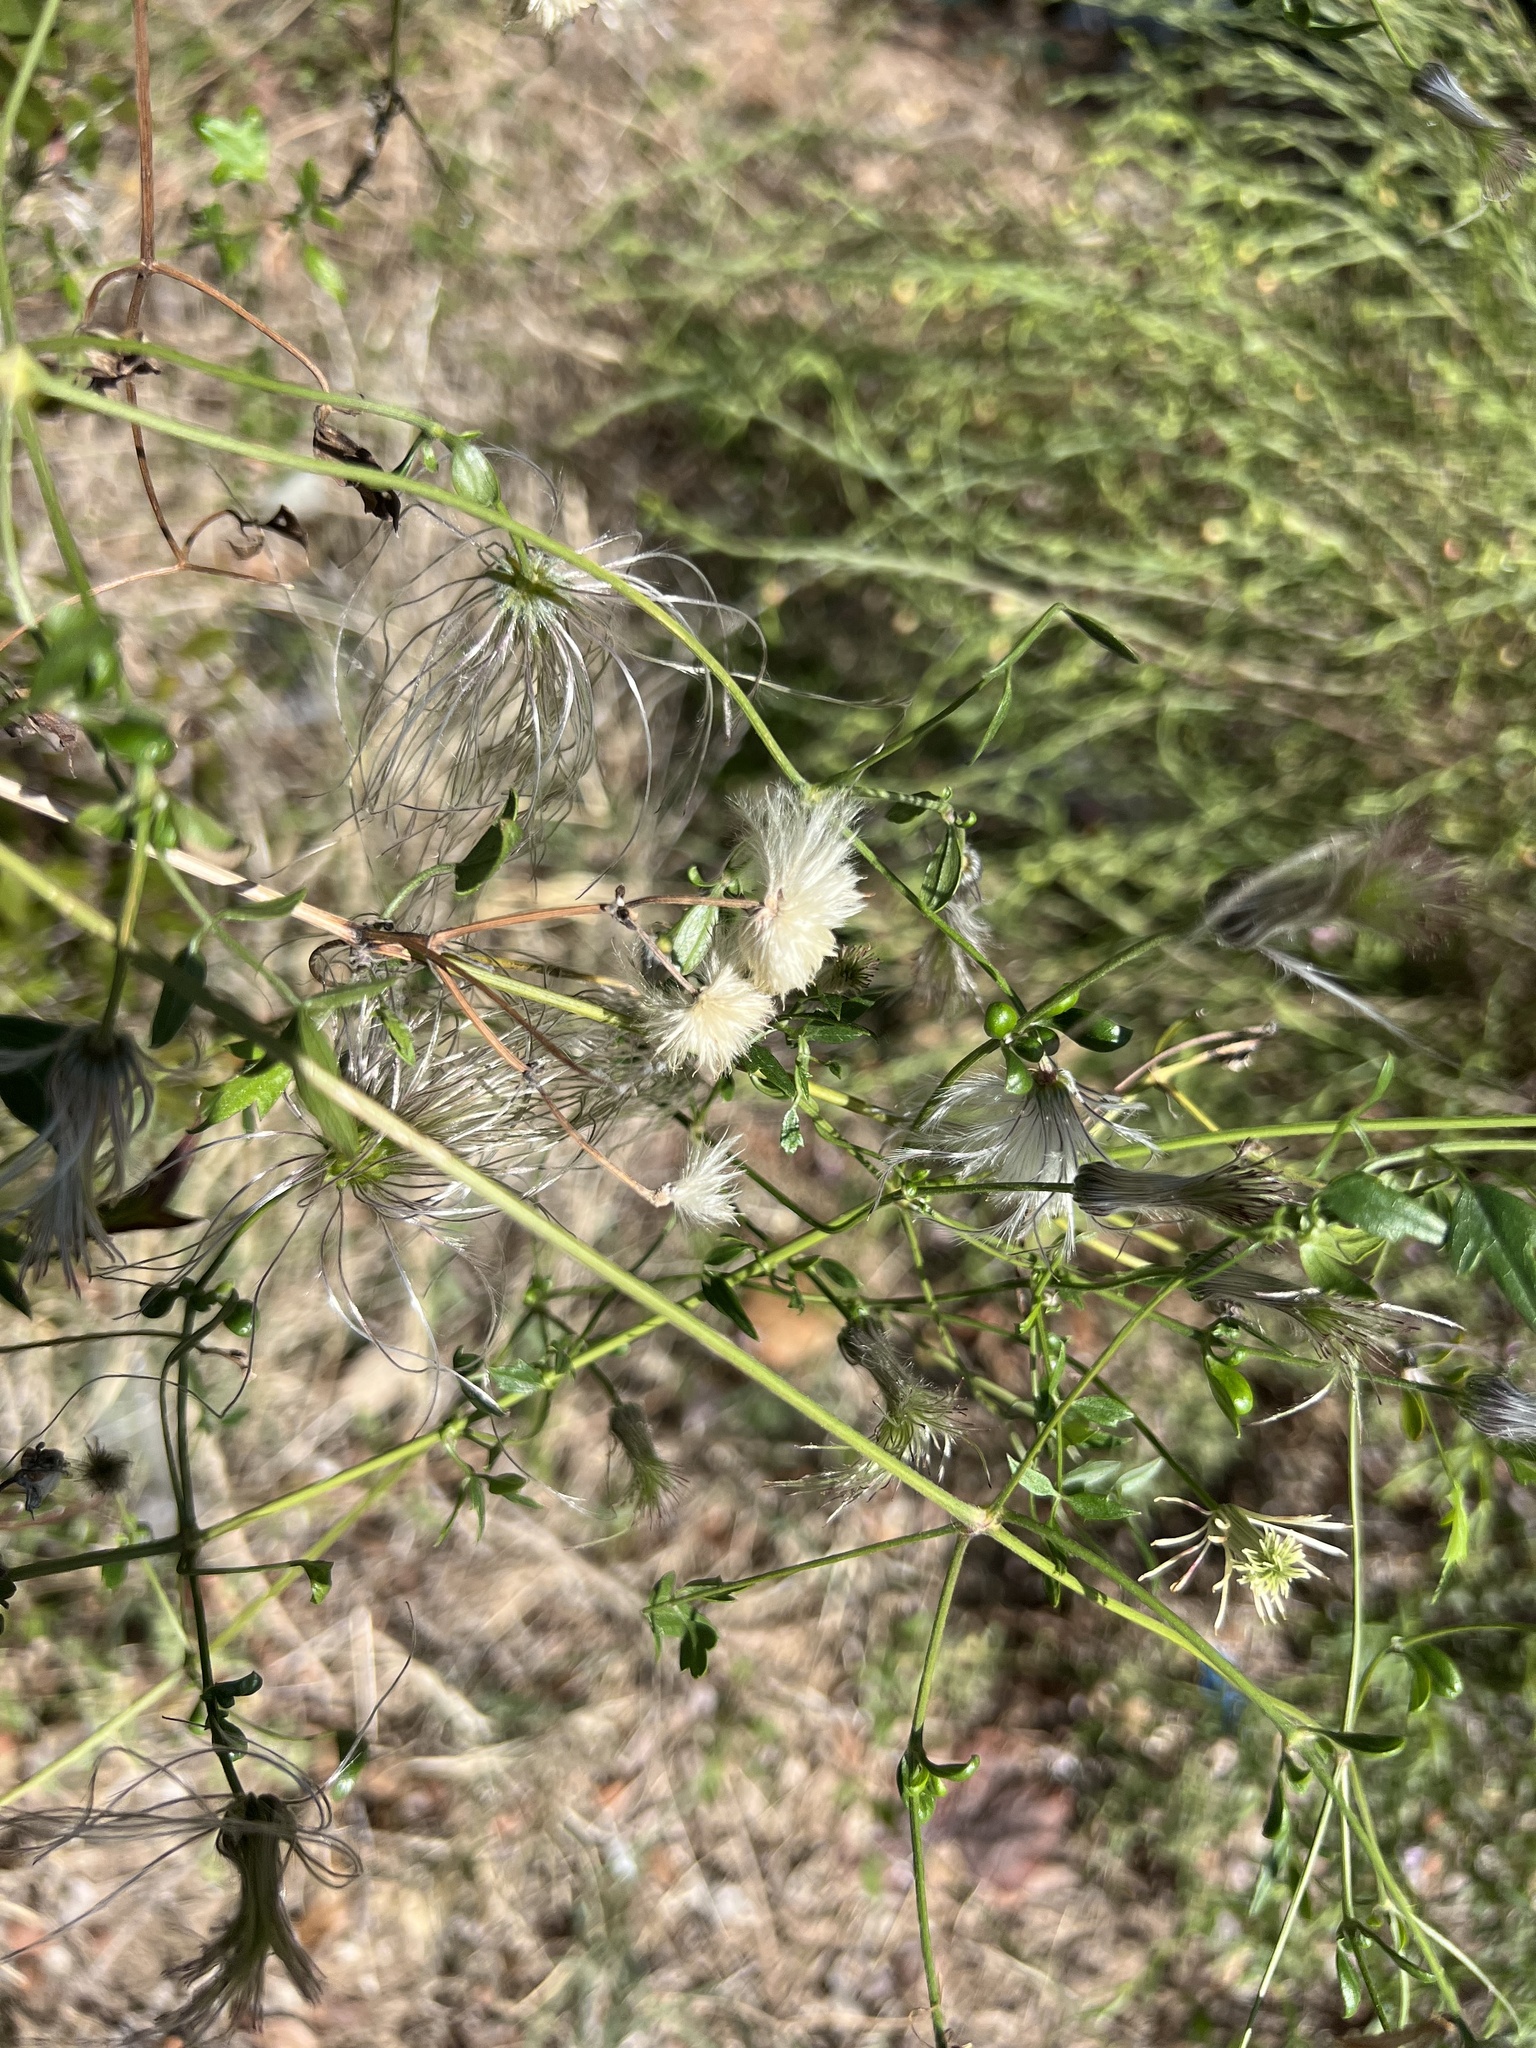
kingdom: Plantae
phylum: Tracheophyta
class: Magnoliopsida
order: Ranunculales
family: Ranunculaceae
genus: Clematis
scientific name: Clematis drummondii
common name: Texas virgin's bower
